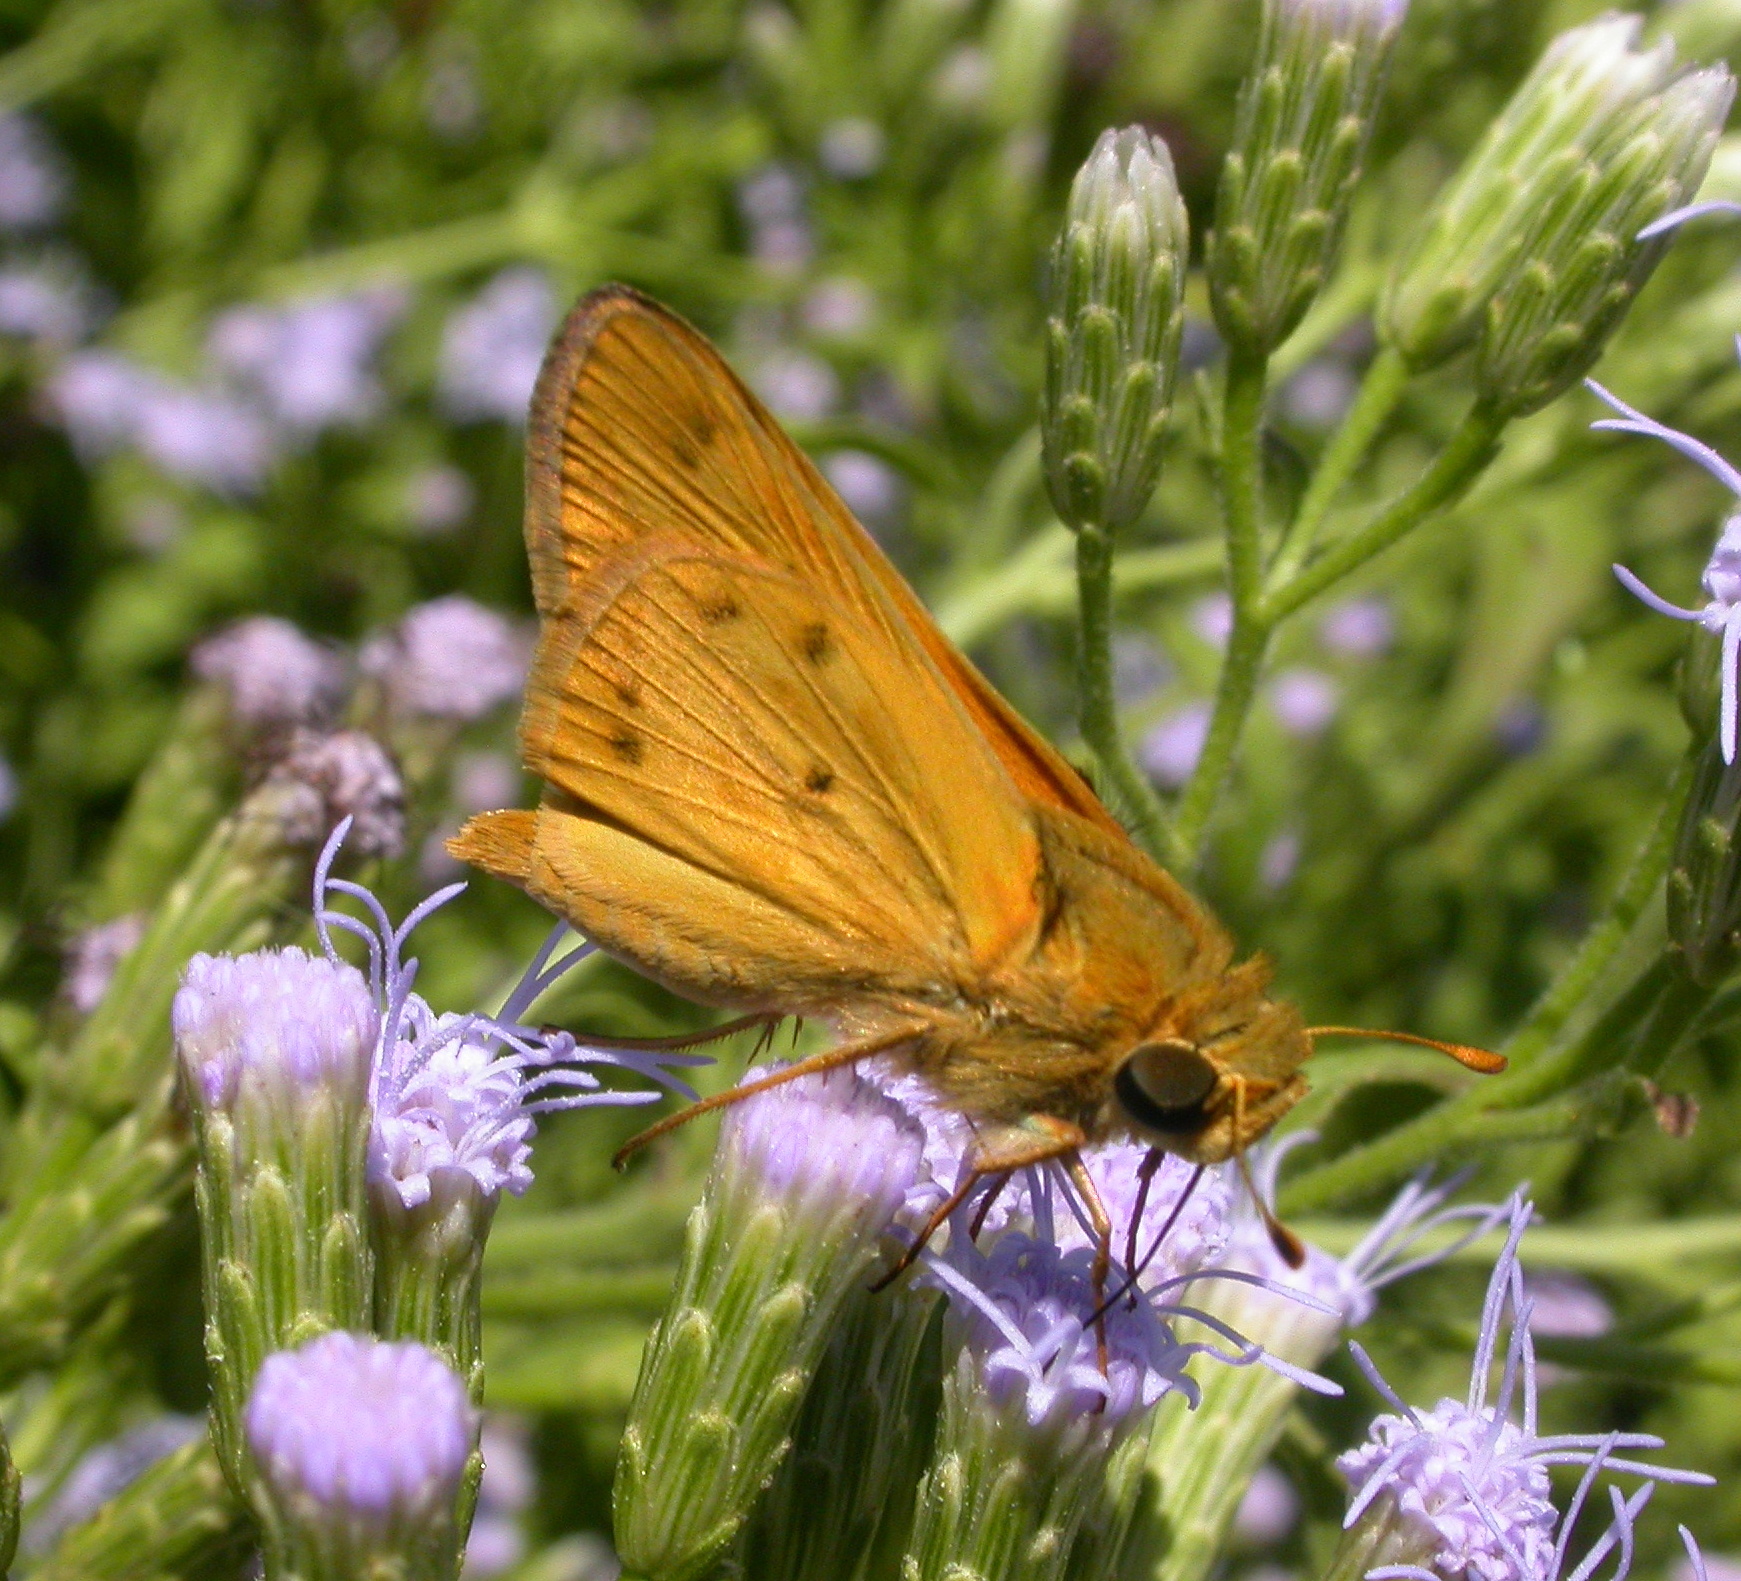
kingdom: Animalia
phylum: Arthropoda
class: Insecta
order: Lepidoptera
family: Hesperiidae
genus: Hylephila
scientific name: Hylephila phyleus
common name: Fiery skipper
